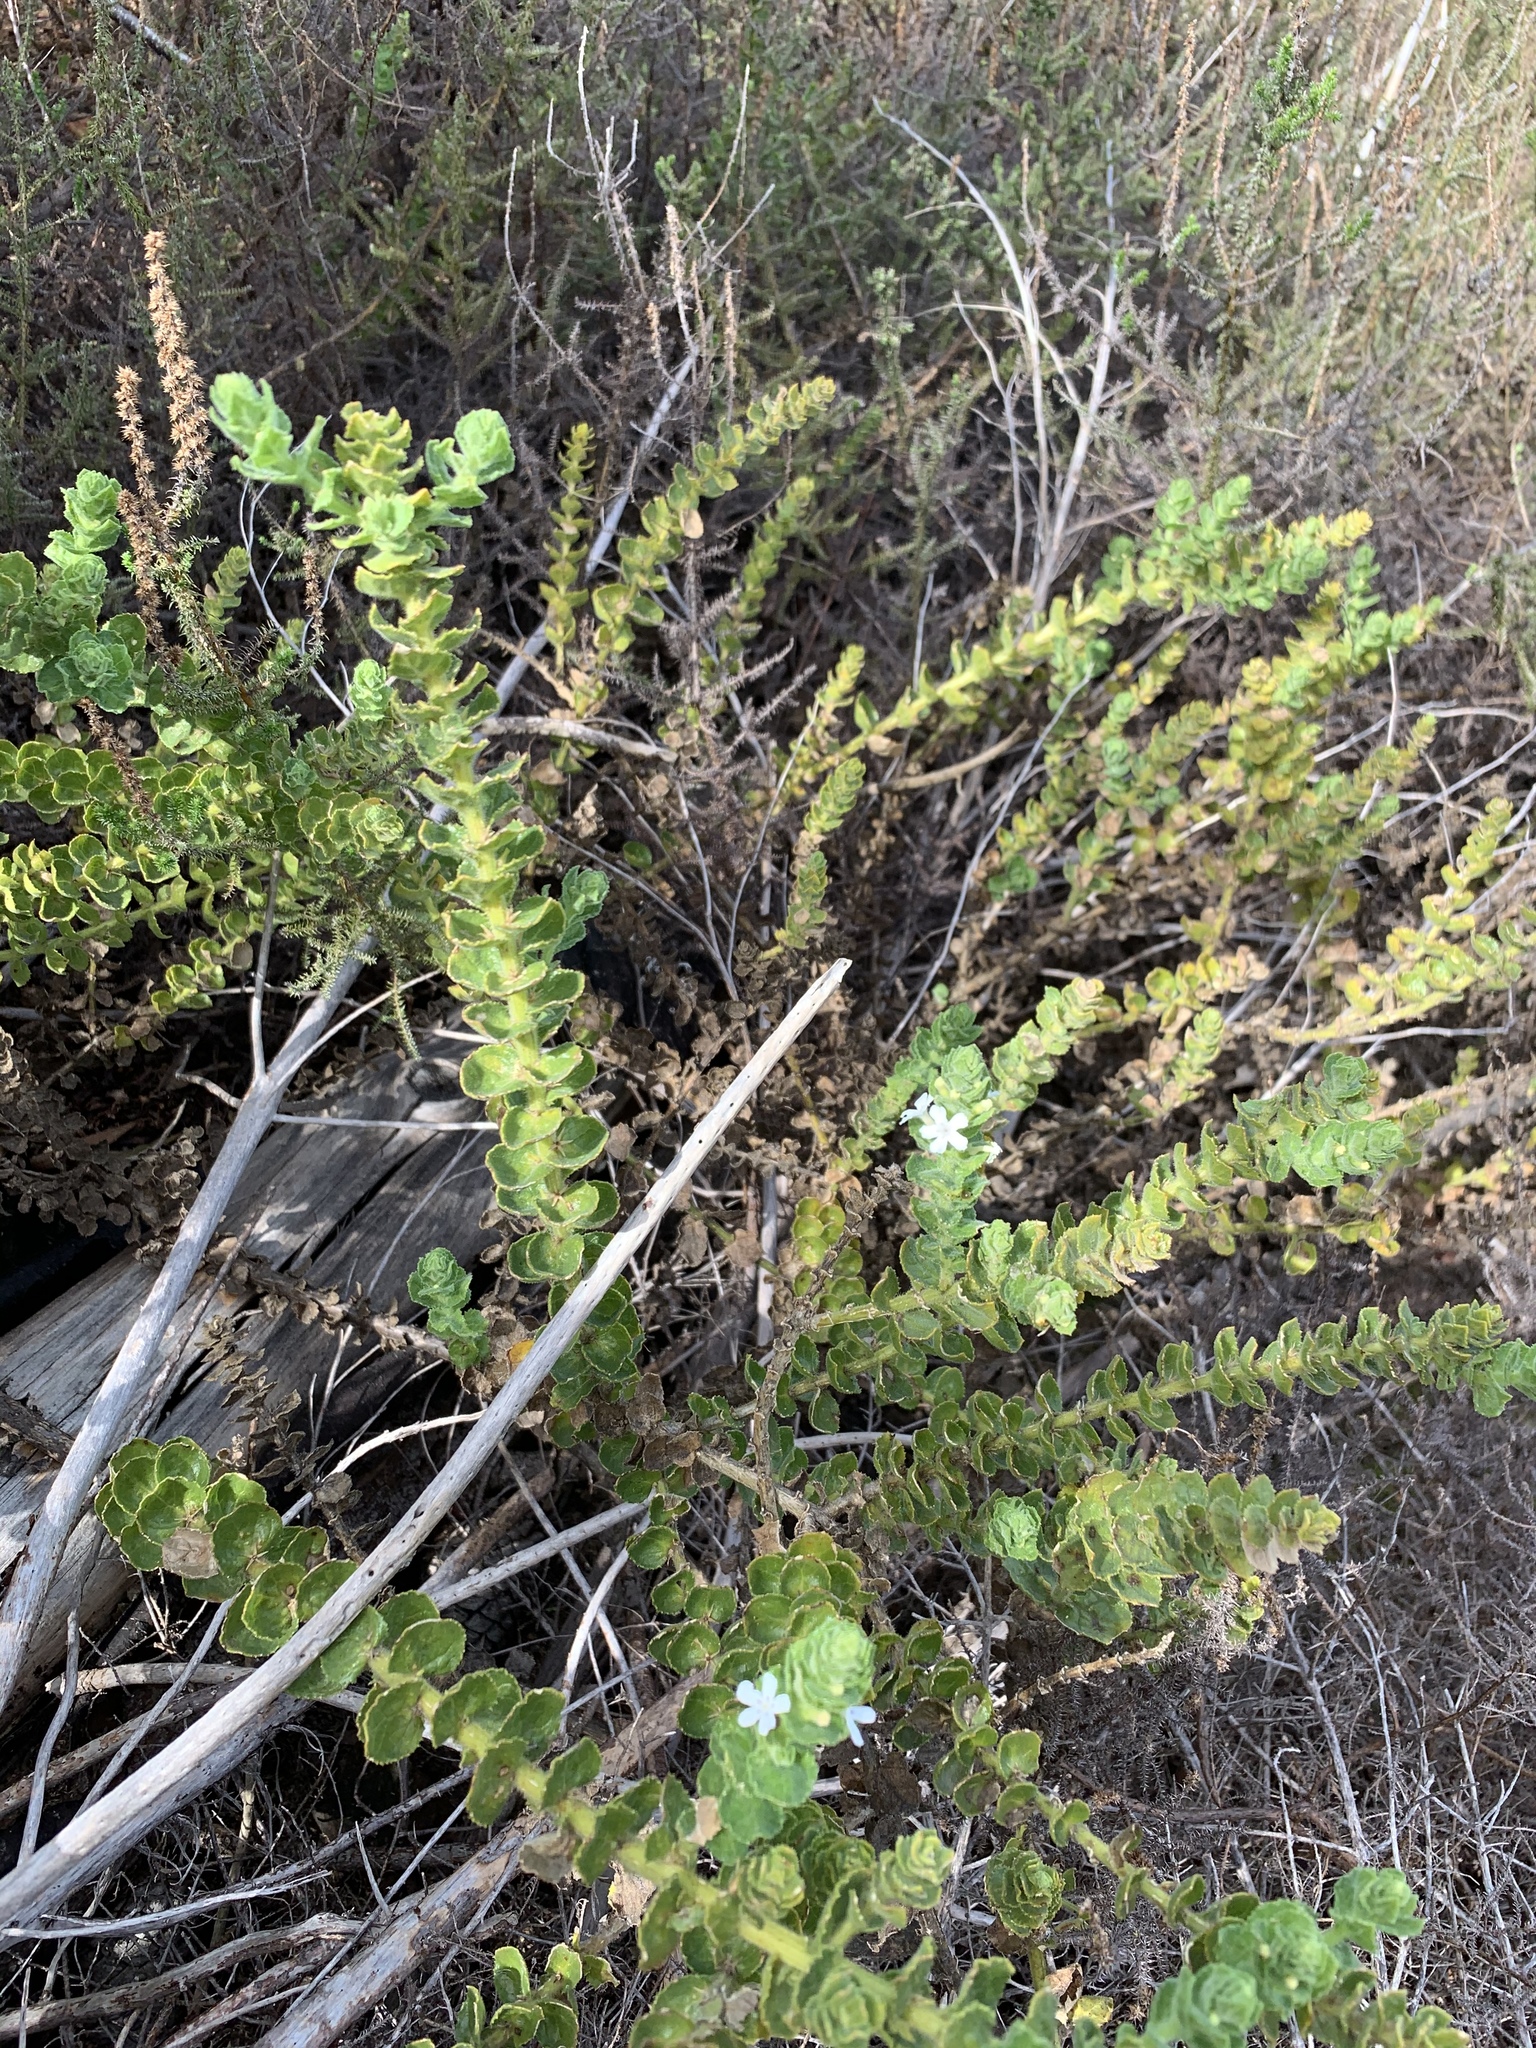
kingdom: Plantae
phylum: Tracheophyta
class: Magnoliopsida
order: Lamiales
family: Scrophulariaceae
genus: Oftia
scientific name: Oftia africana
